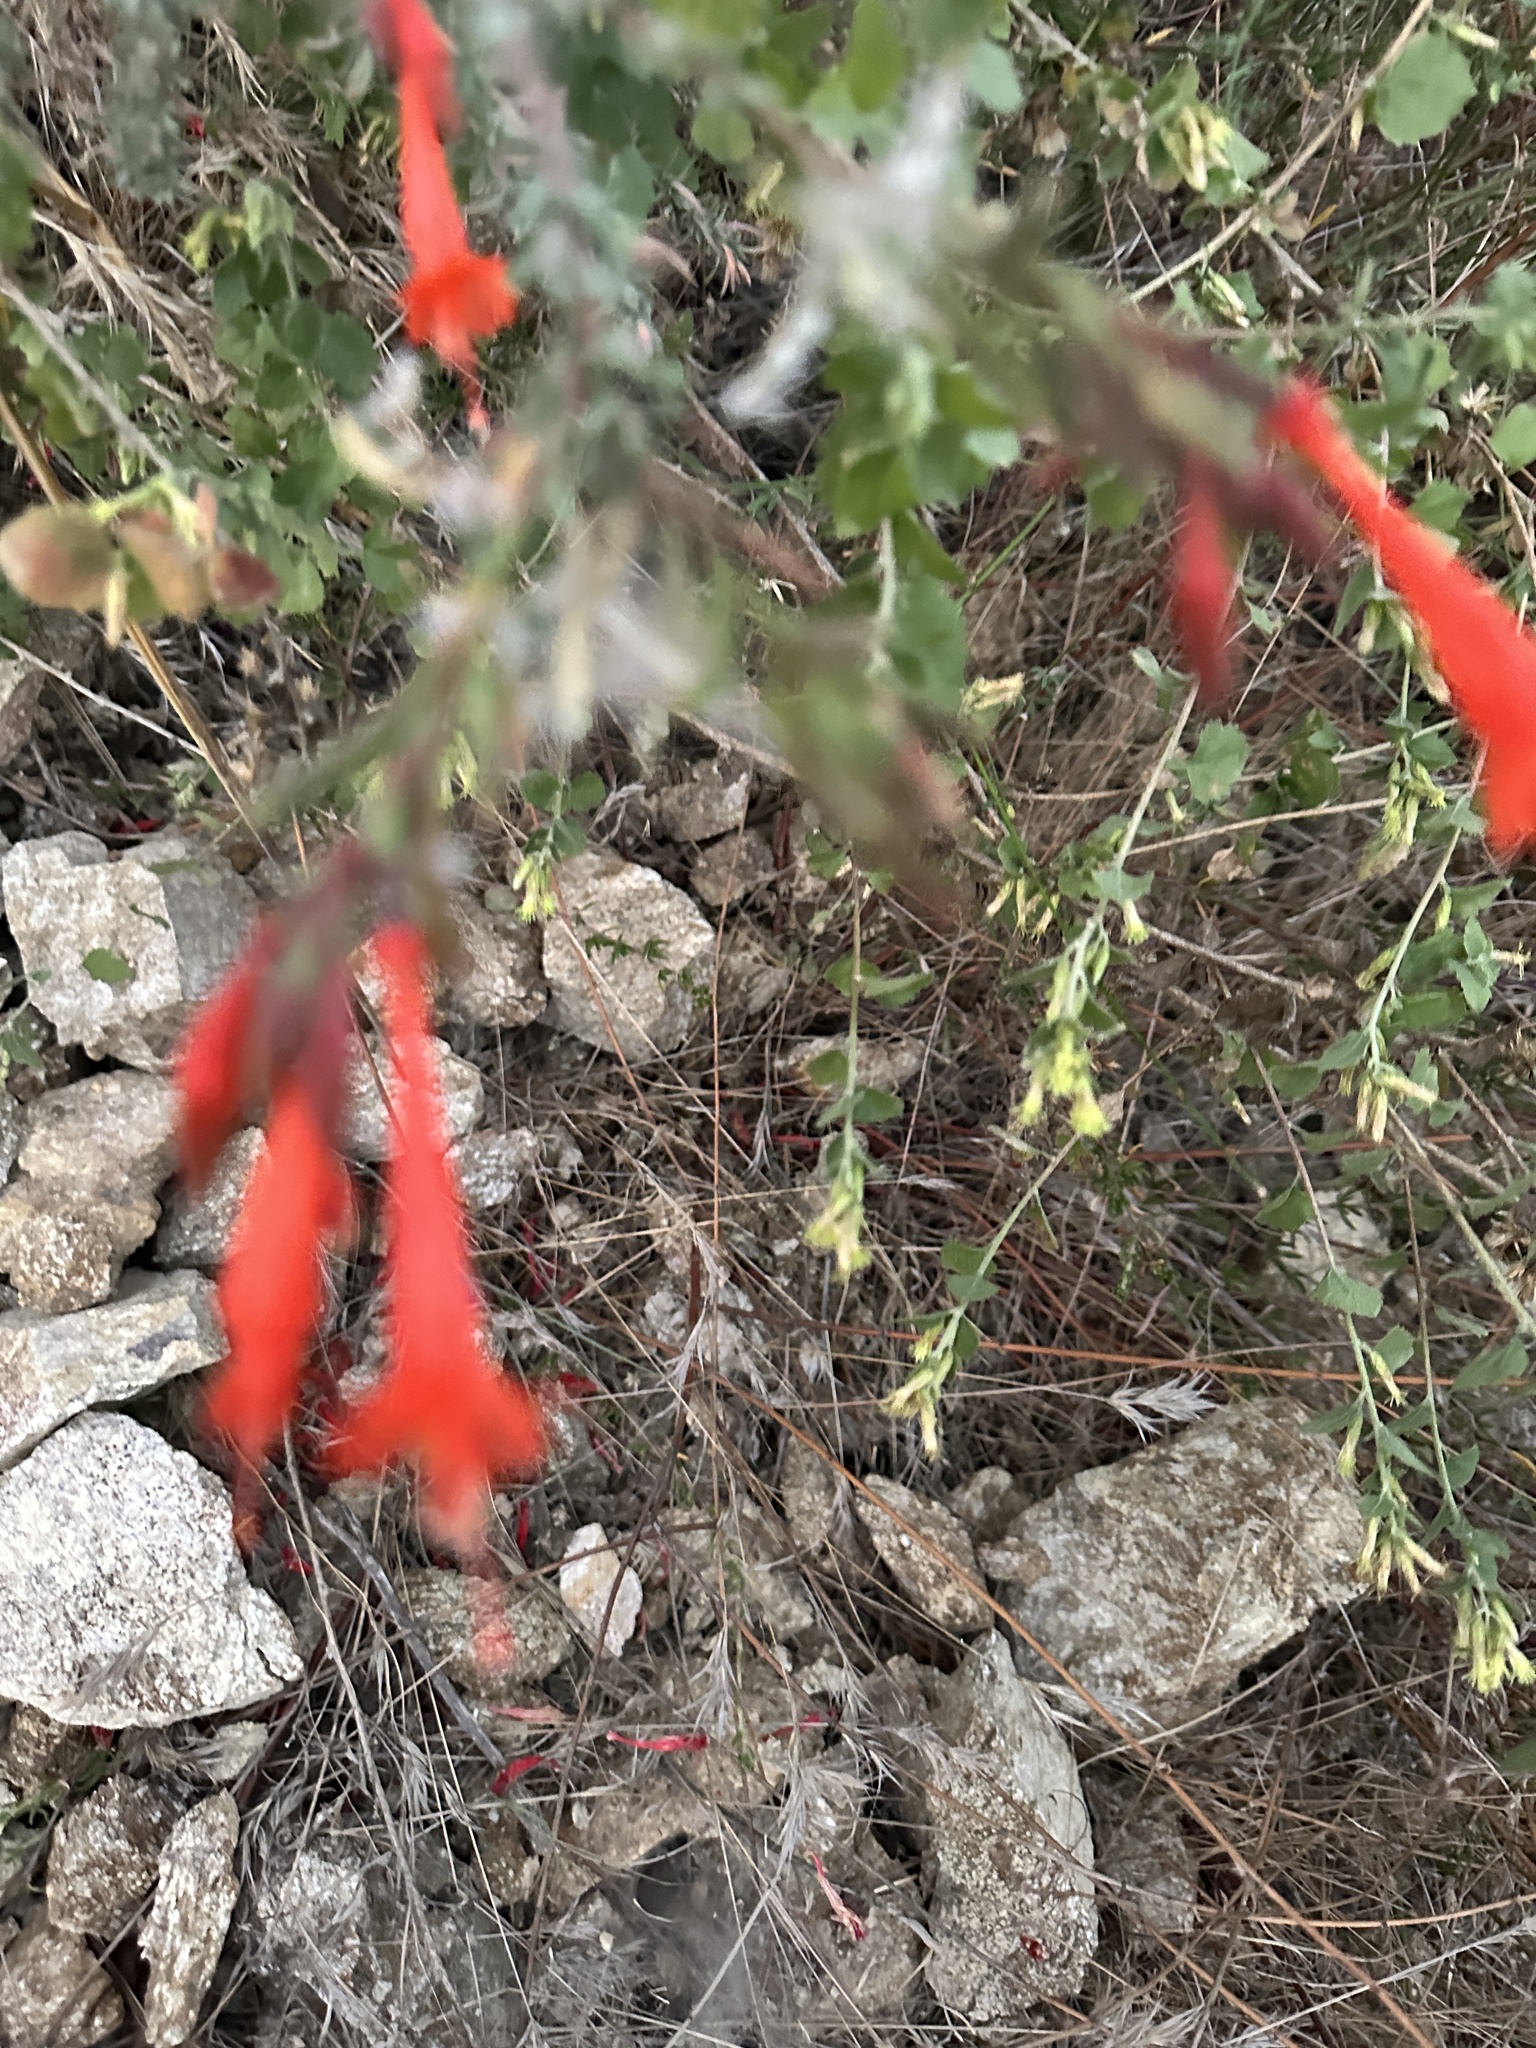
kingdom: Plantae
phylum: Tracheophyta
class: Magnoliopsida
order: Myrtales
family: Onagraceae
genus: Epilobium
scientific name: Epilobium canum
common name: California-fuchsia
